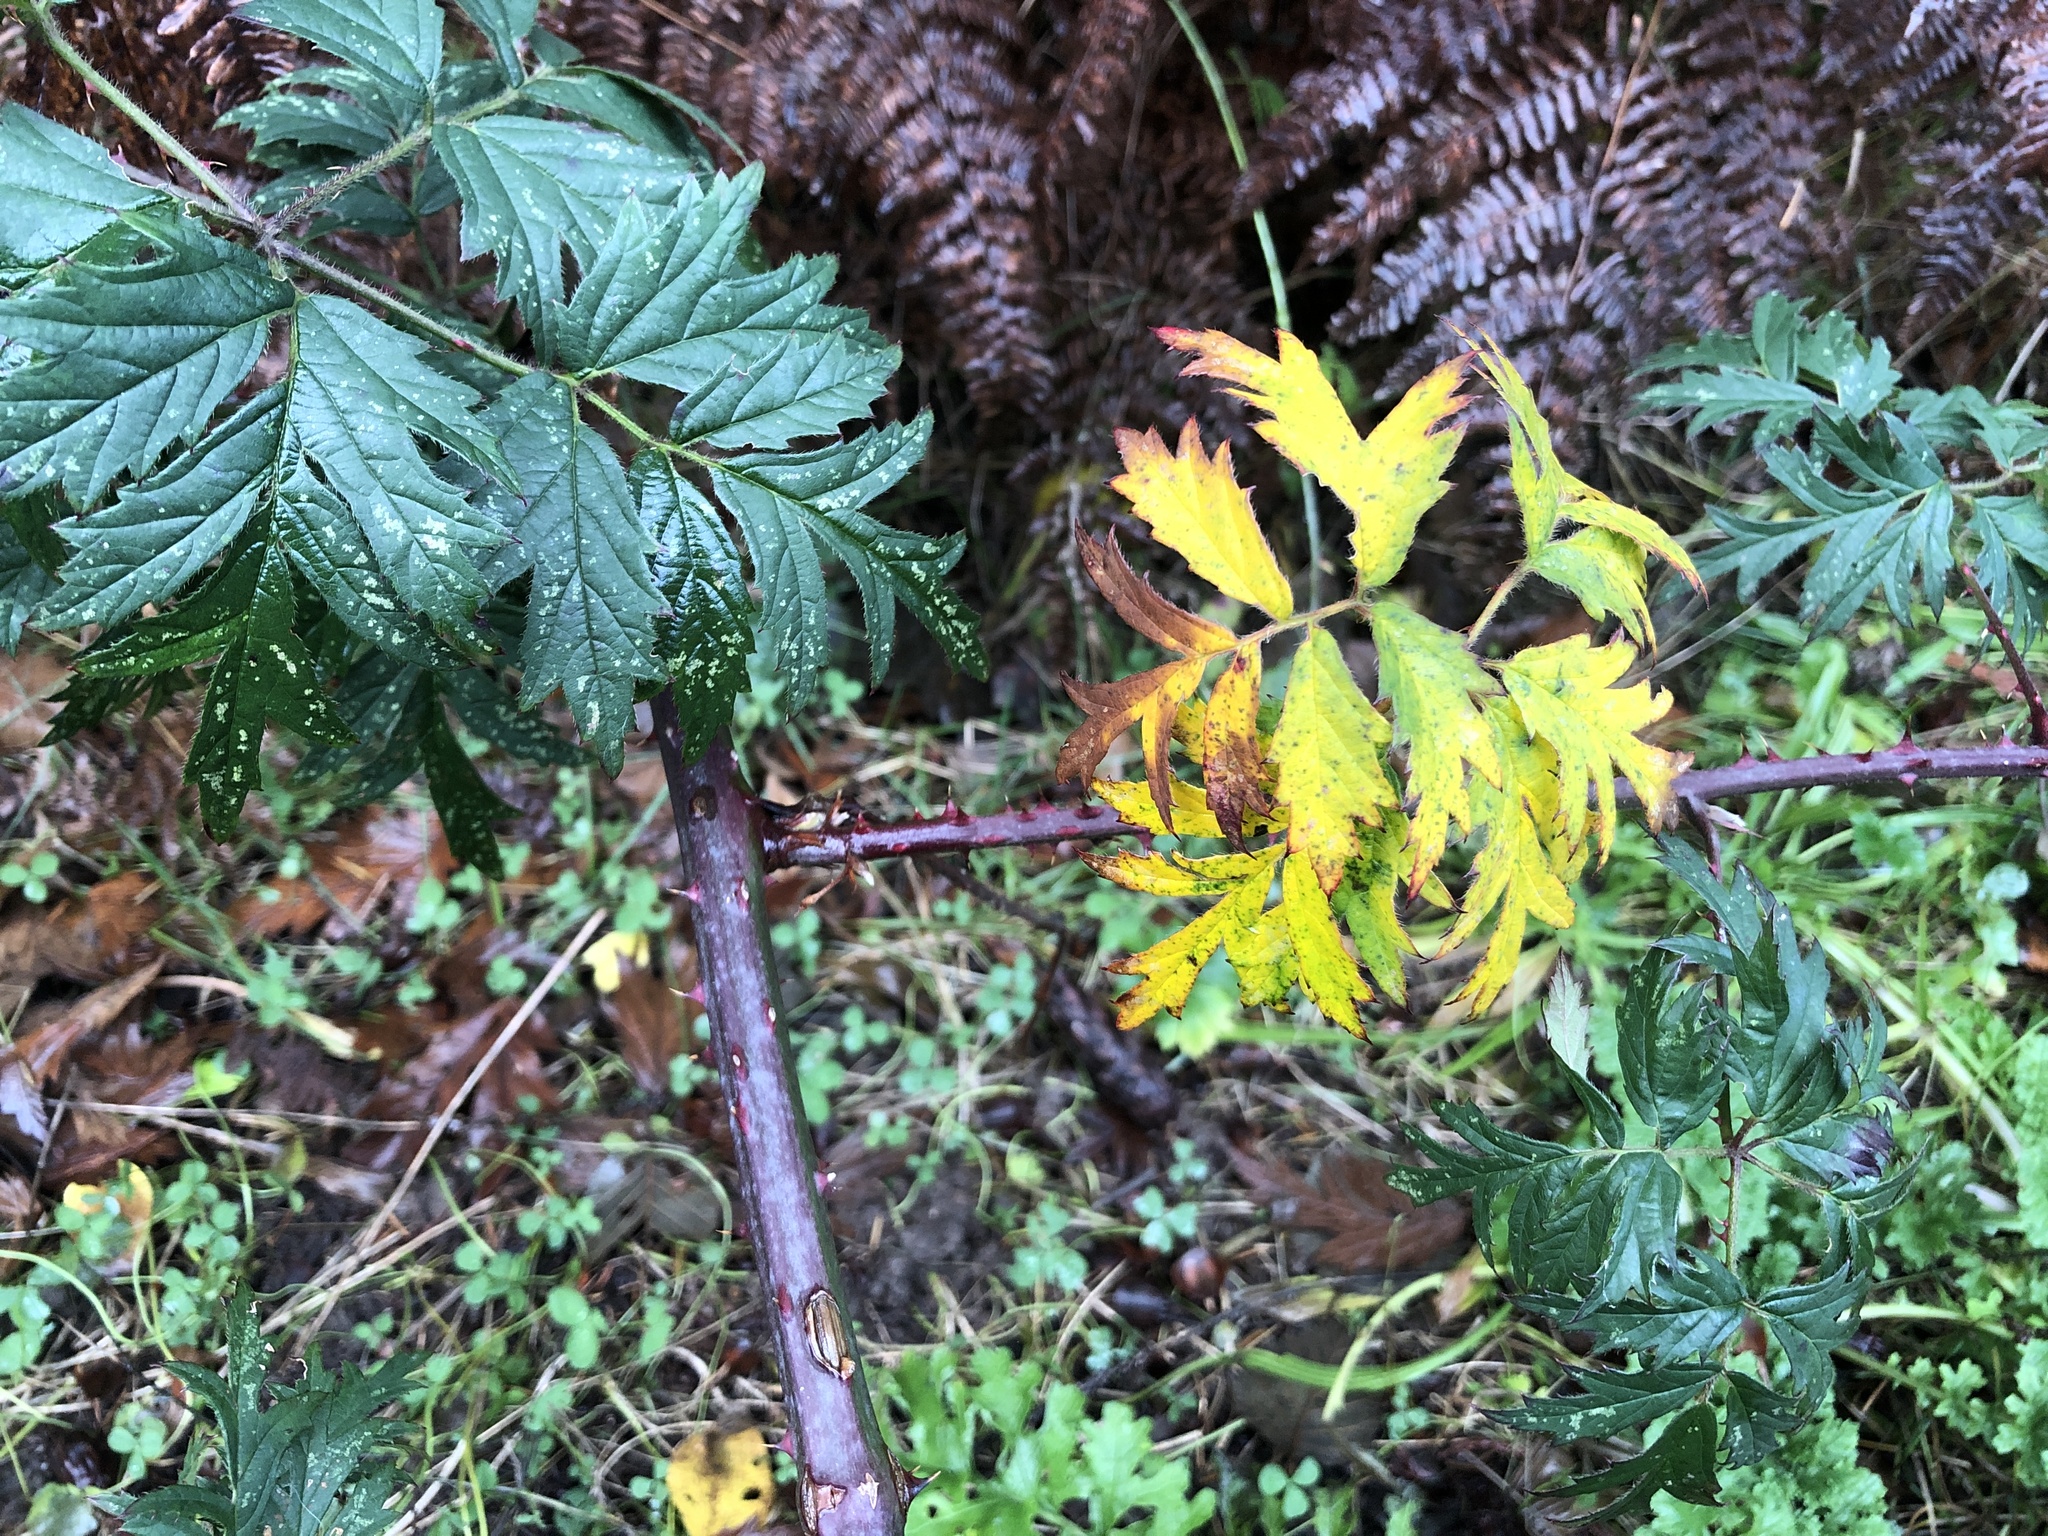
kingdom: Plantae
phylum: Tracheophyta
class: Magnoliopsida
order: Rosales
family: Rosaceae
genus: Rubus
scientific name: Rubus laciniatus
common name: Evergreen blackberry
